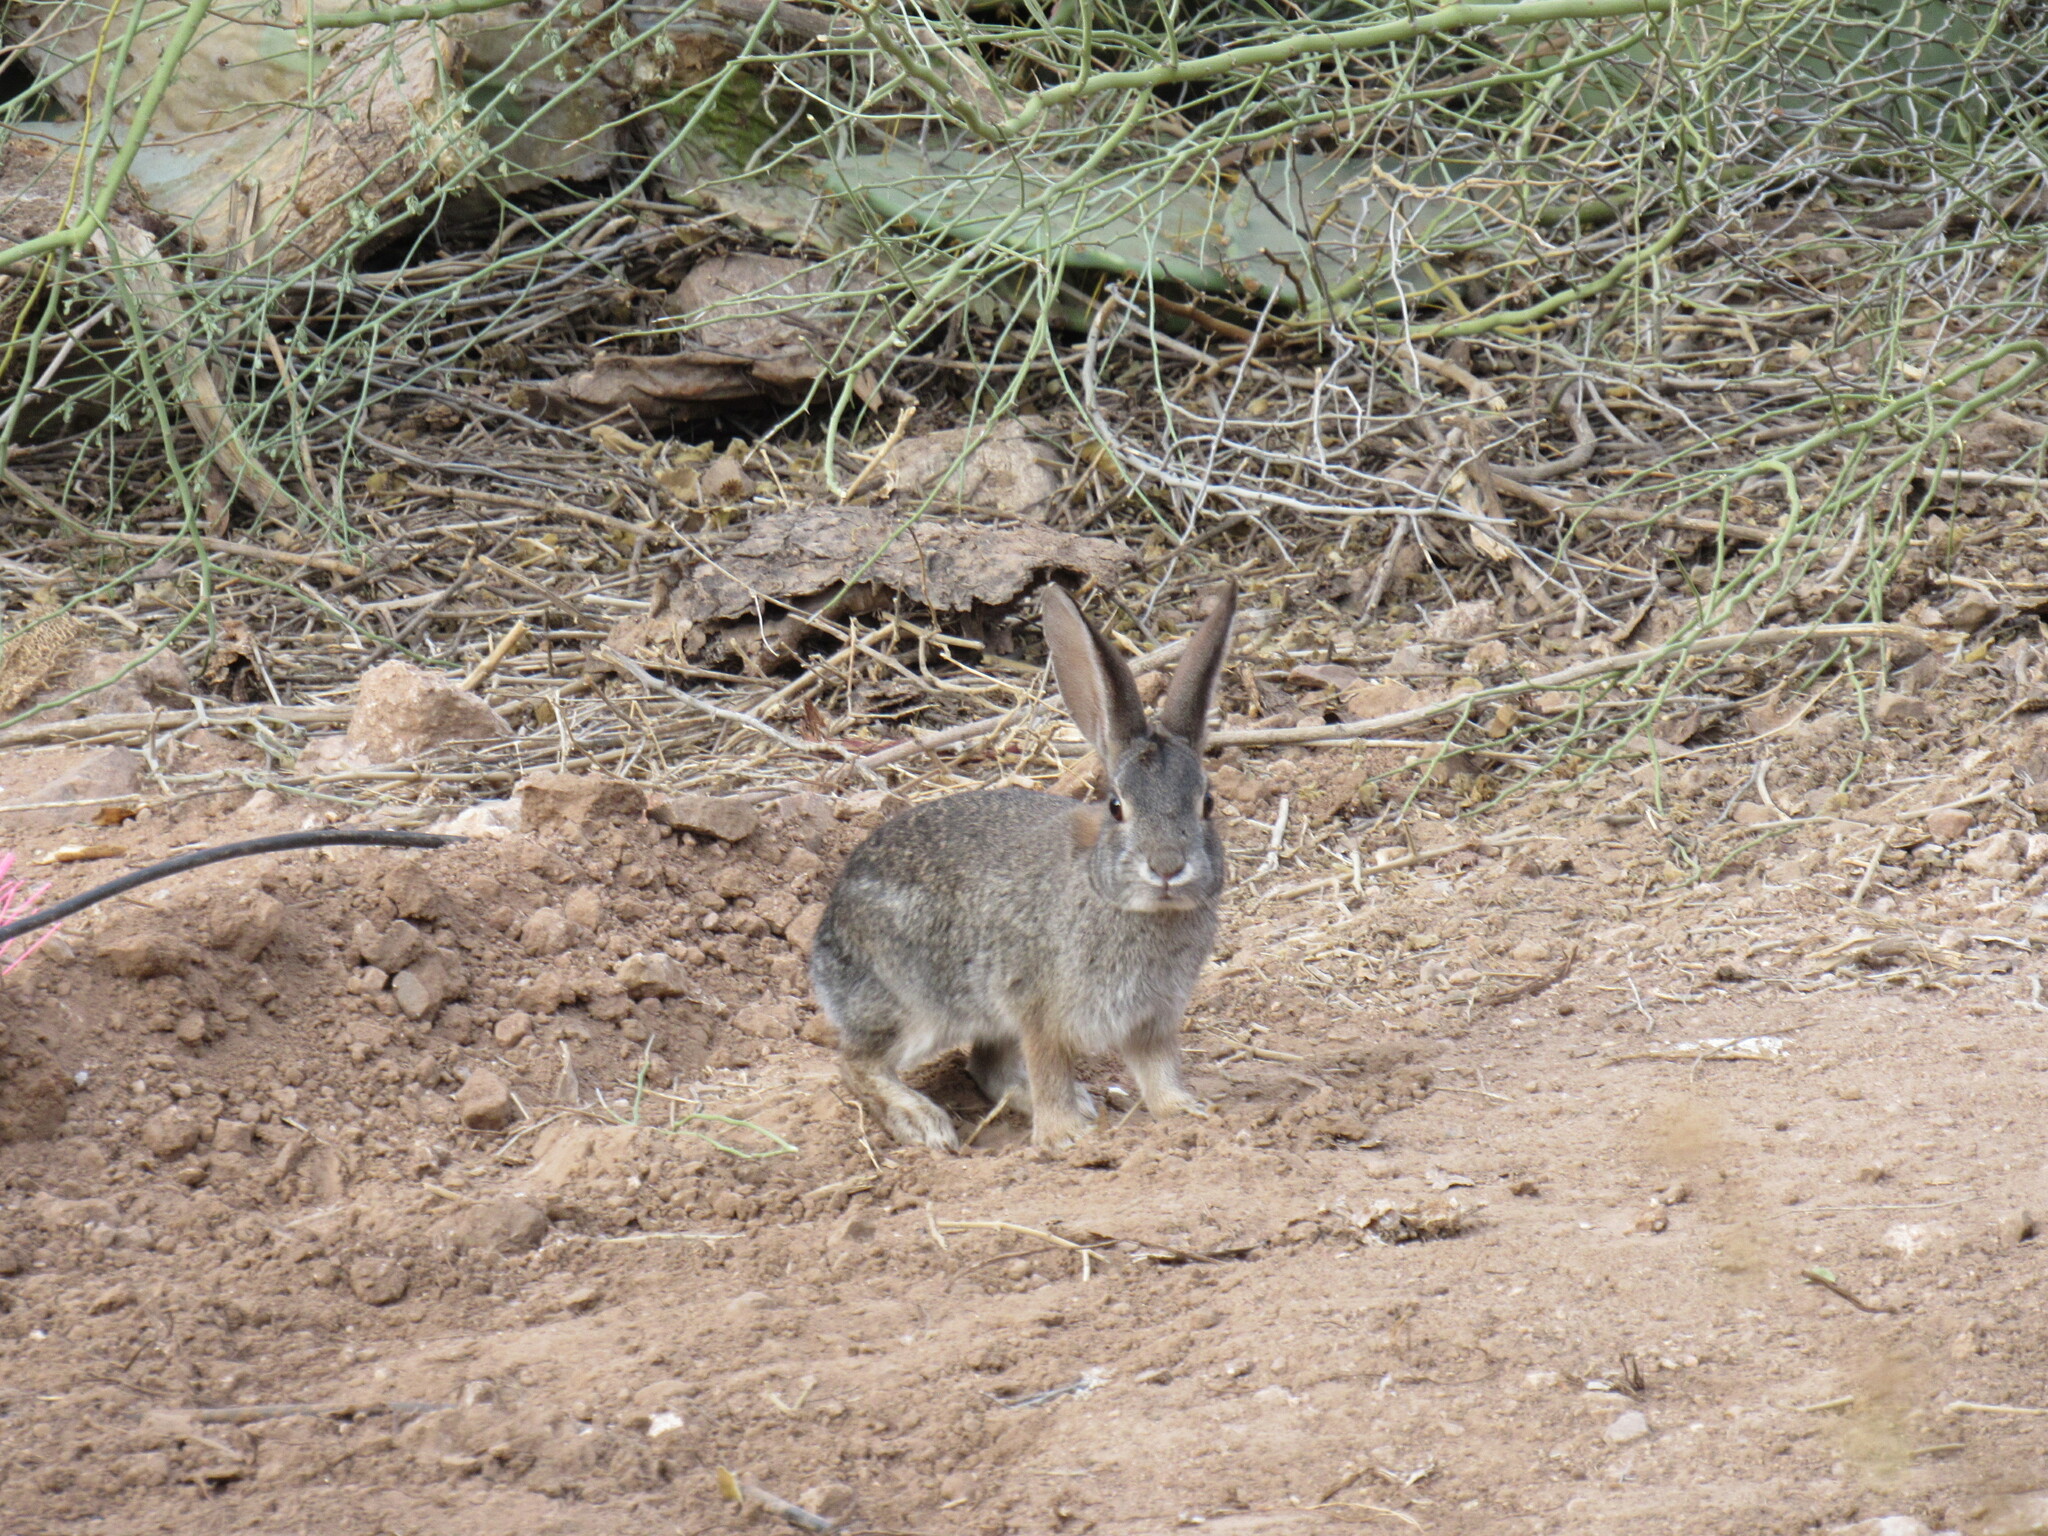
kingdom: Animalia
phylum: Chordata
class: Mammalia
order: Lagomorpha
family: Leporidae
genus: Sylvilagus
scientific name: Sylvilagus audubonii
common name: Desert cottontail
